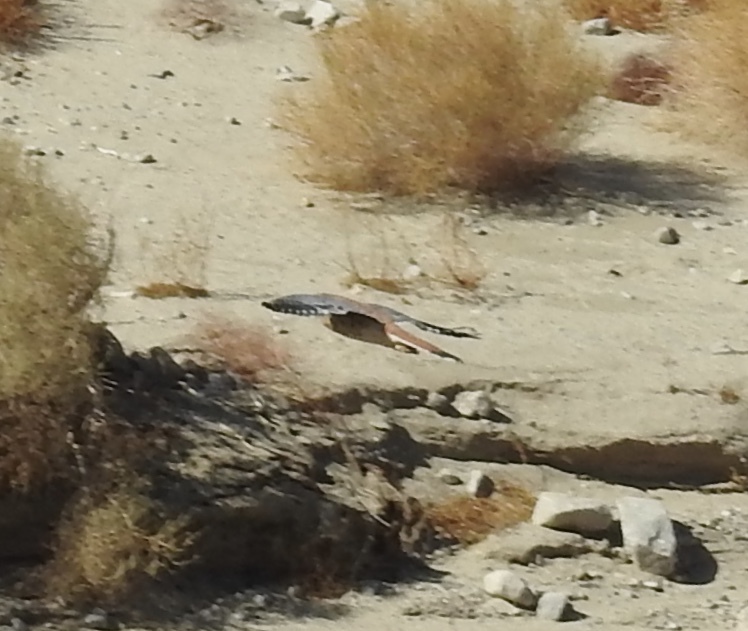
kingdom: Animalia
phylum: Chordata
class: Aves
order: Falconiformes
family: Falconidae
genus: Falco
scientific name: Falco sparverius
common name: American kestrel
